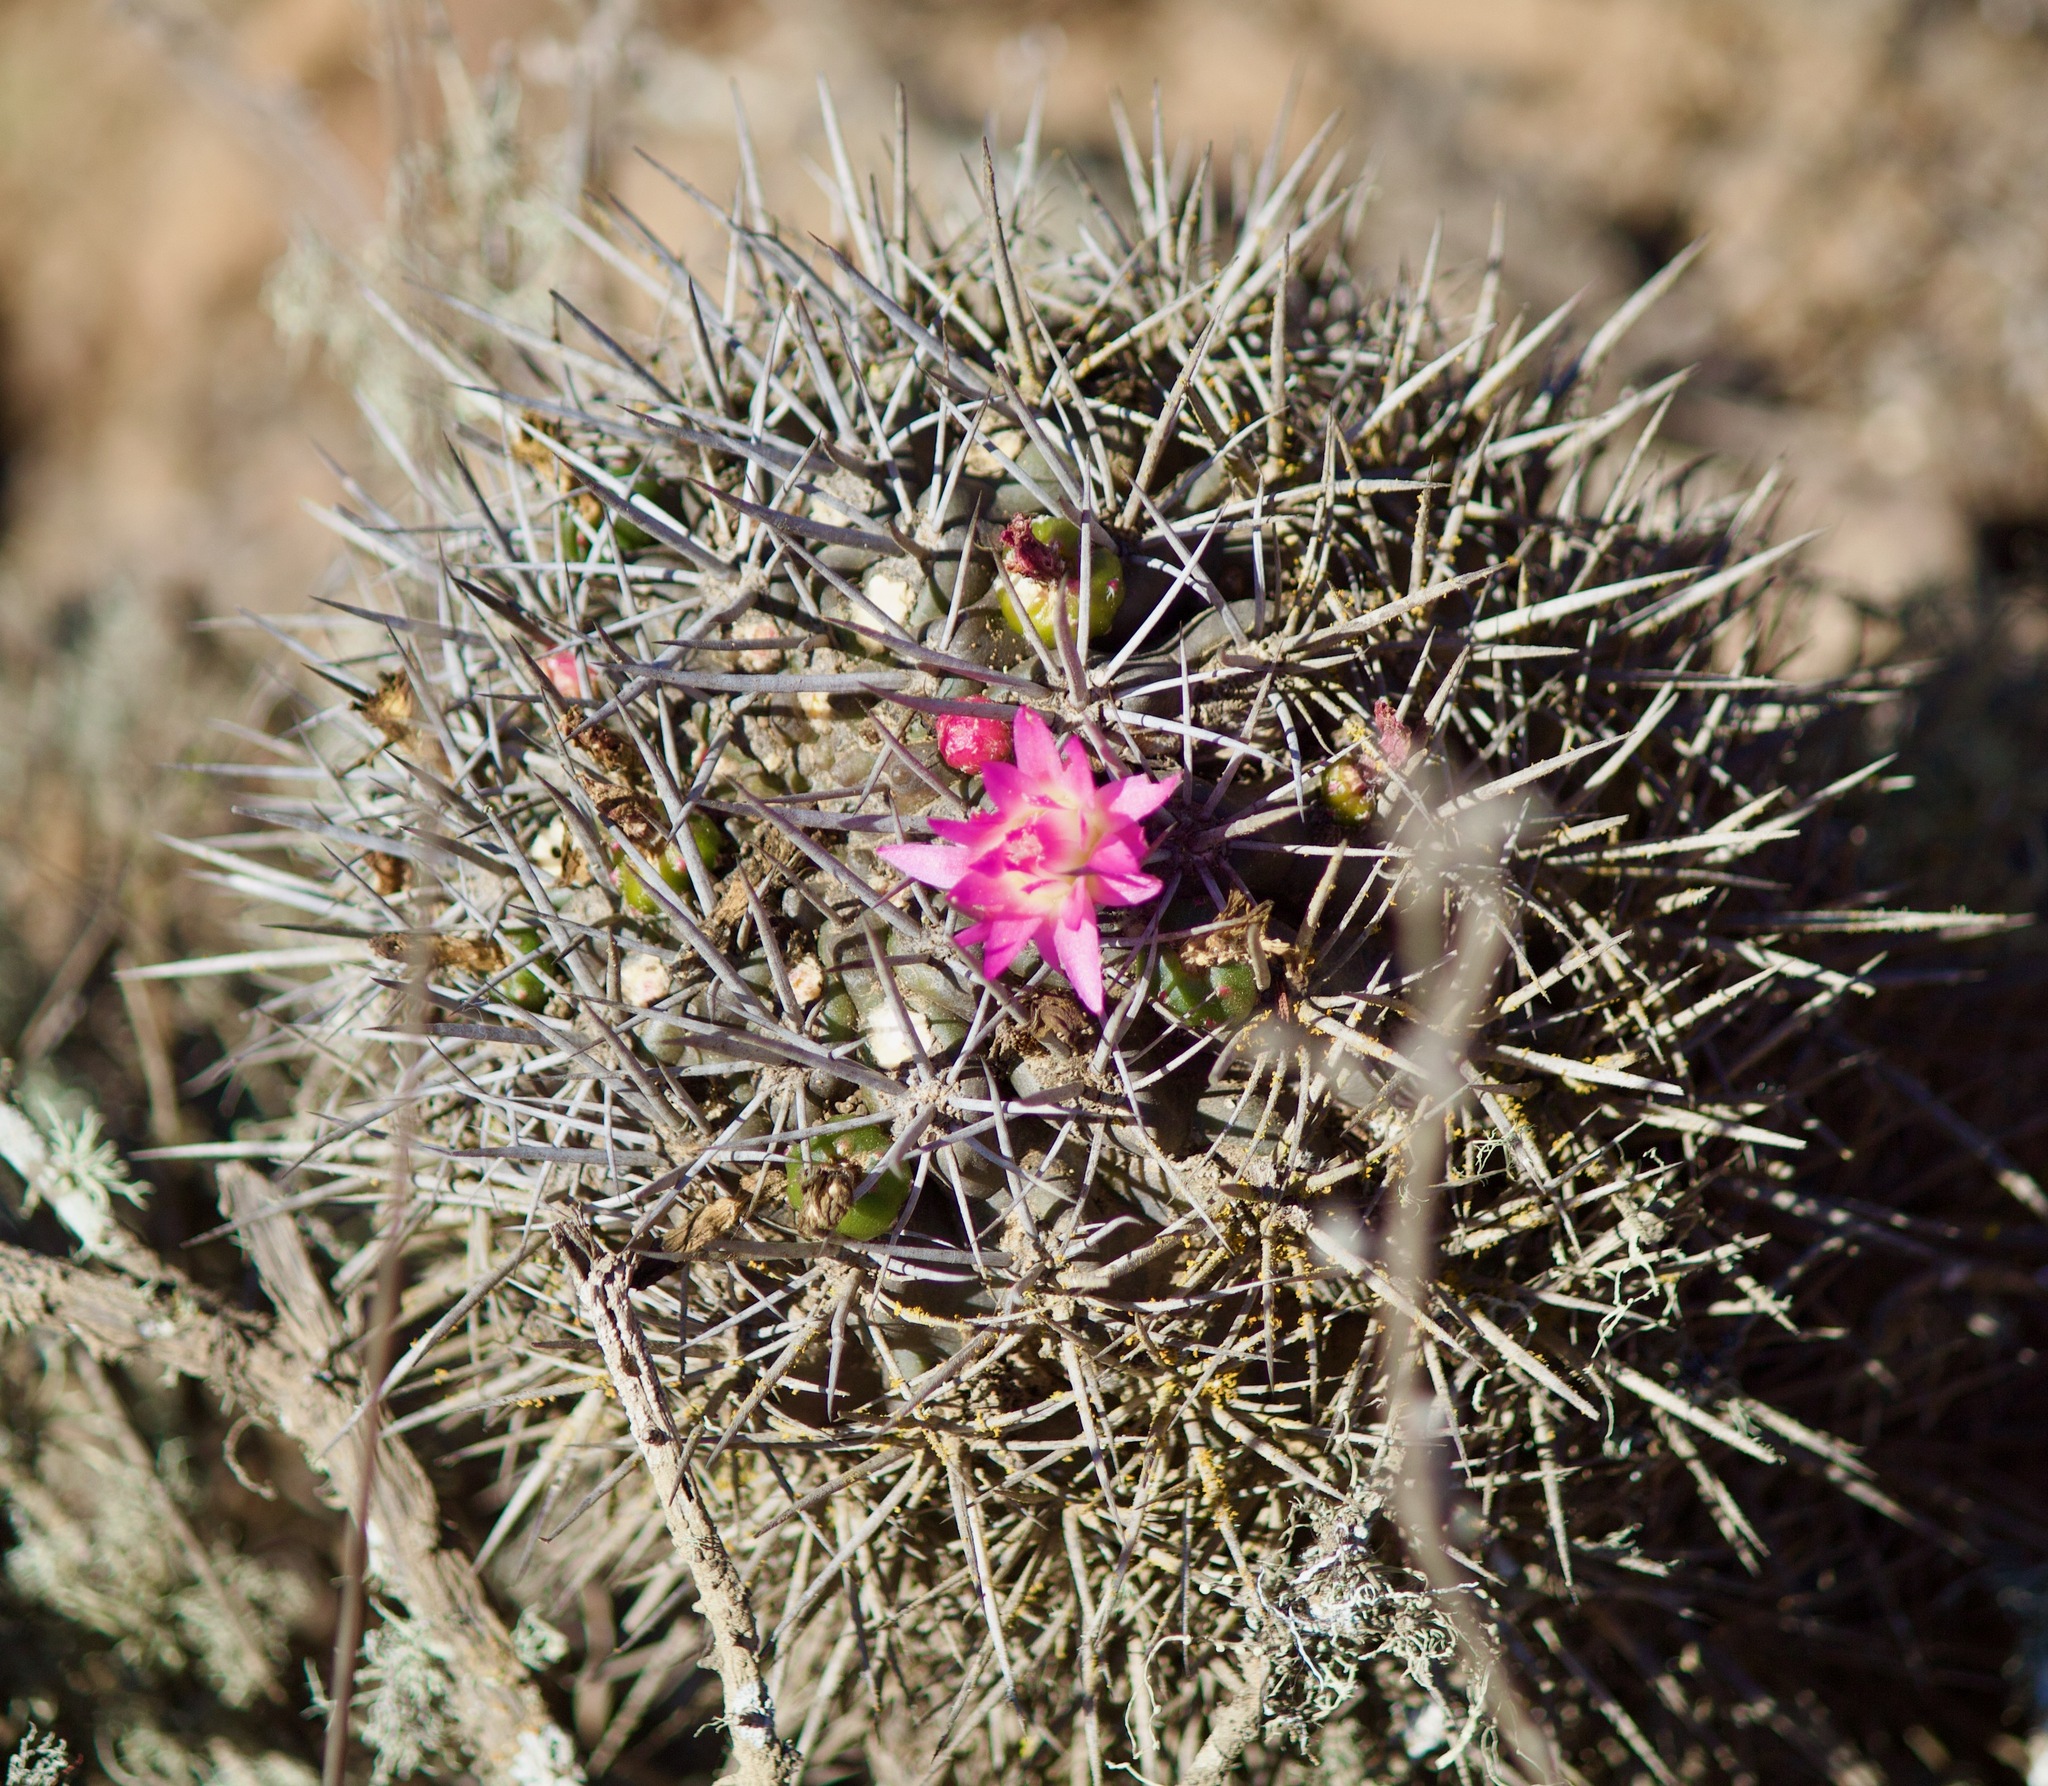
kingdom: Plantae
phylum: Tracheophyta
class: Magnoliopsida
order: Caryophyllales
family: Cactaceae
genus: Eriosyce
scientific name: Eriosyce nigrihorrida
